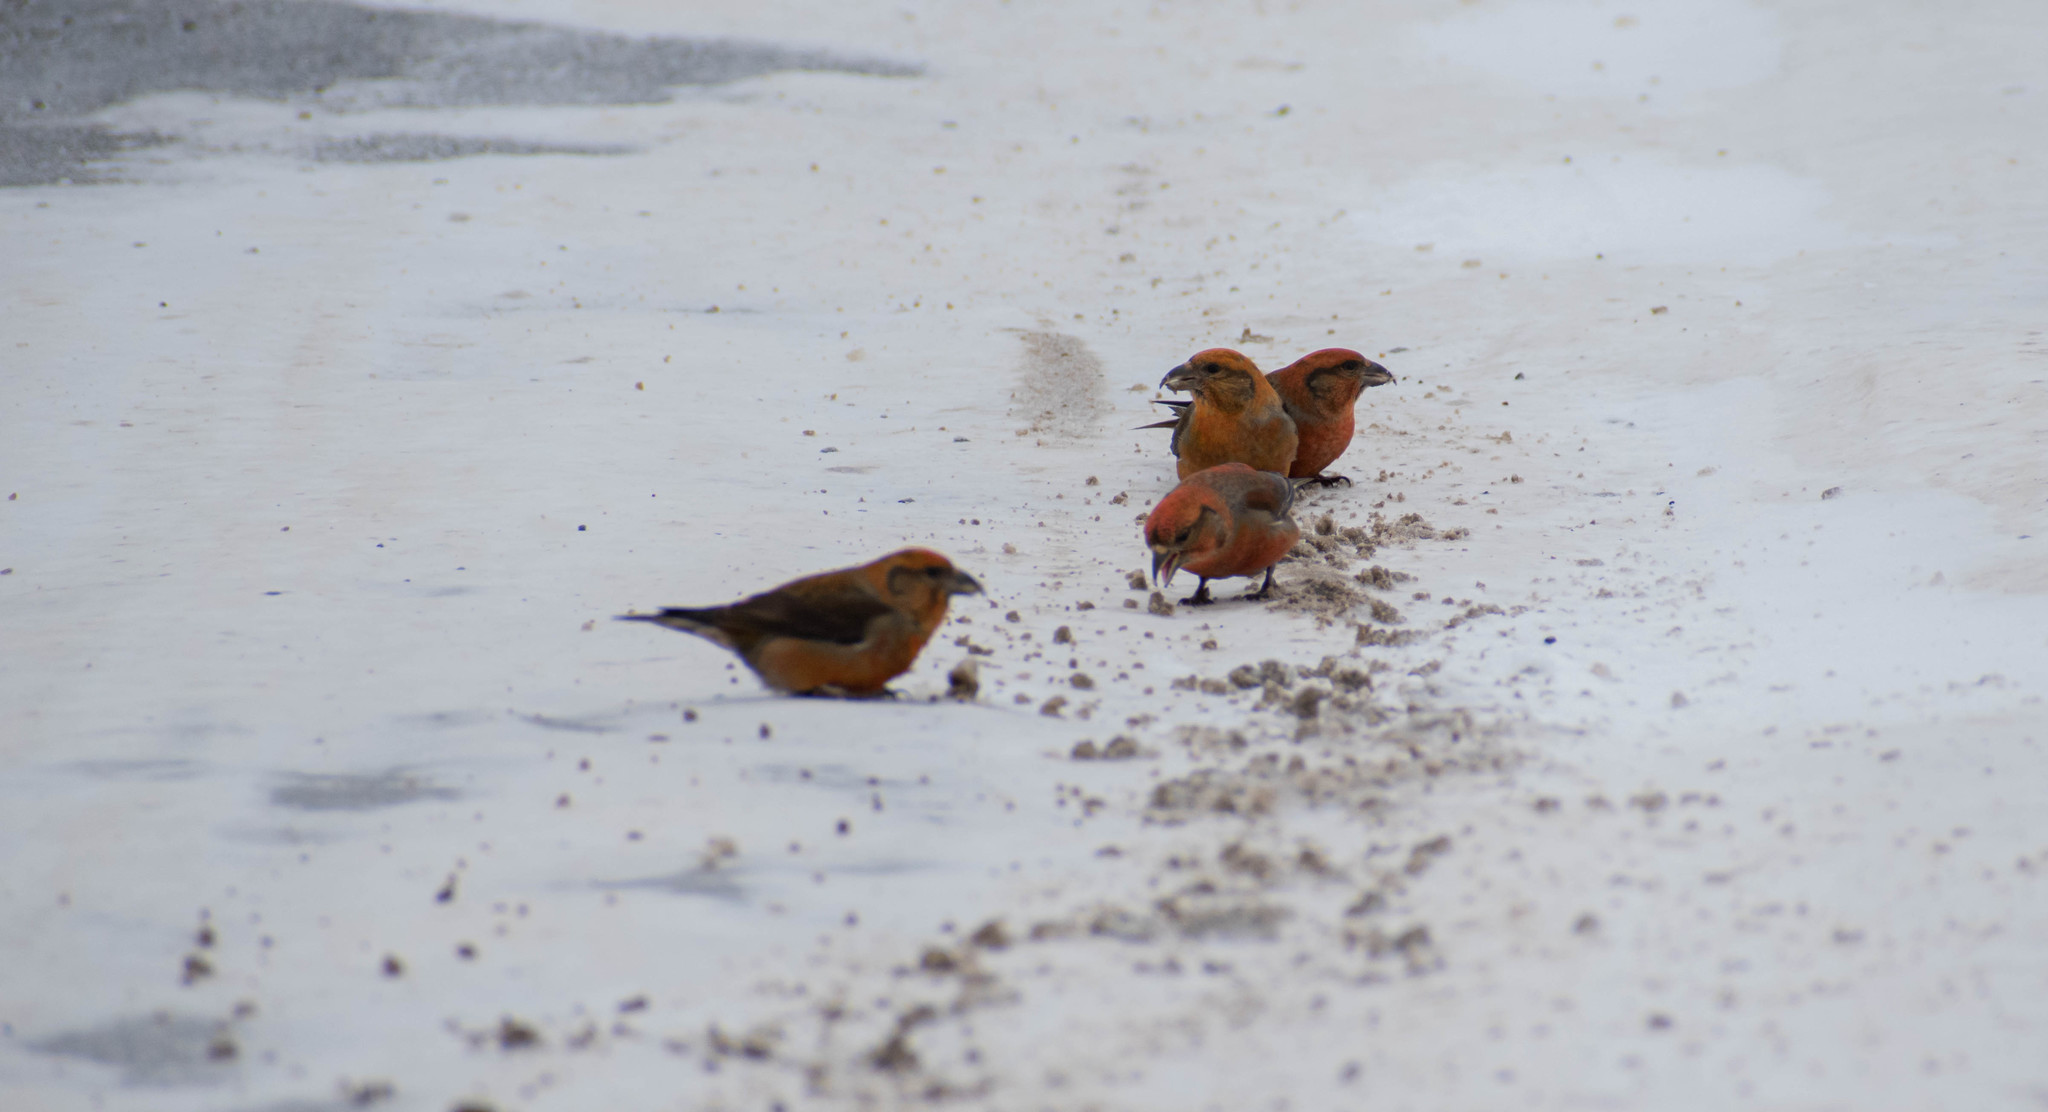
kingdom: Animalia
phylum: Chordata
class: Aves
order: Passeriformes
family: Fringillidae
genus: Loxia
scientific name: Loxia curvirostra
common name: Red crossbill
